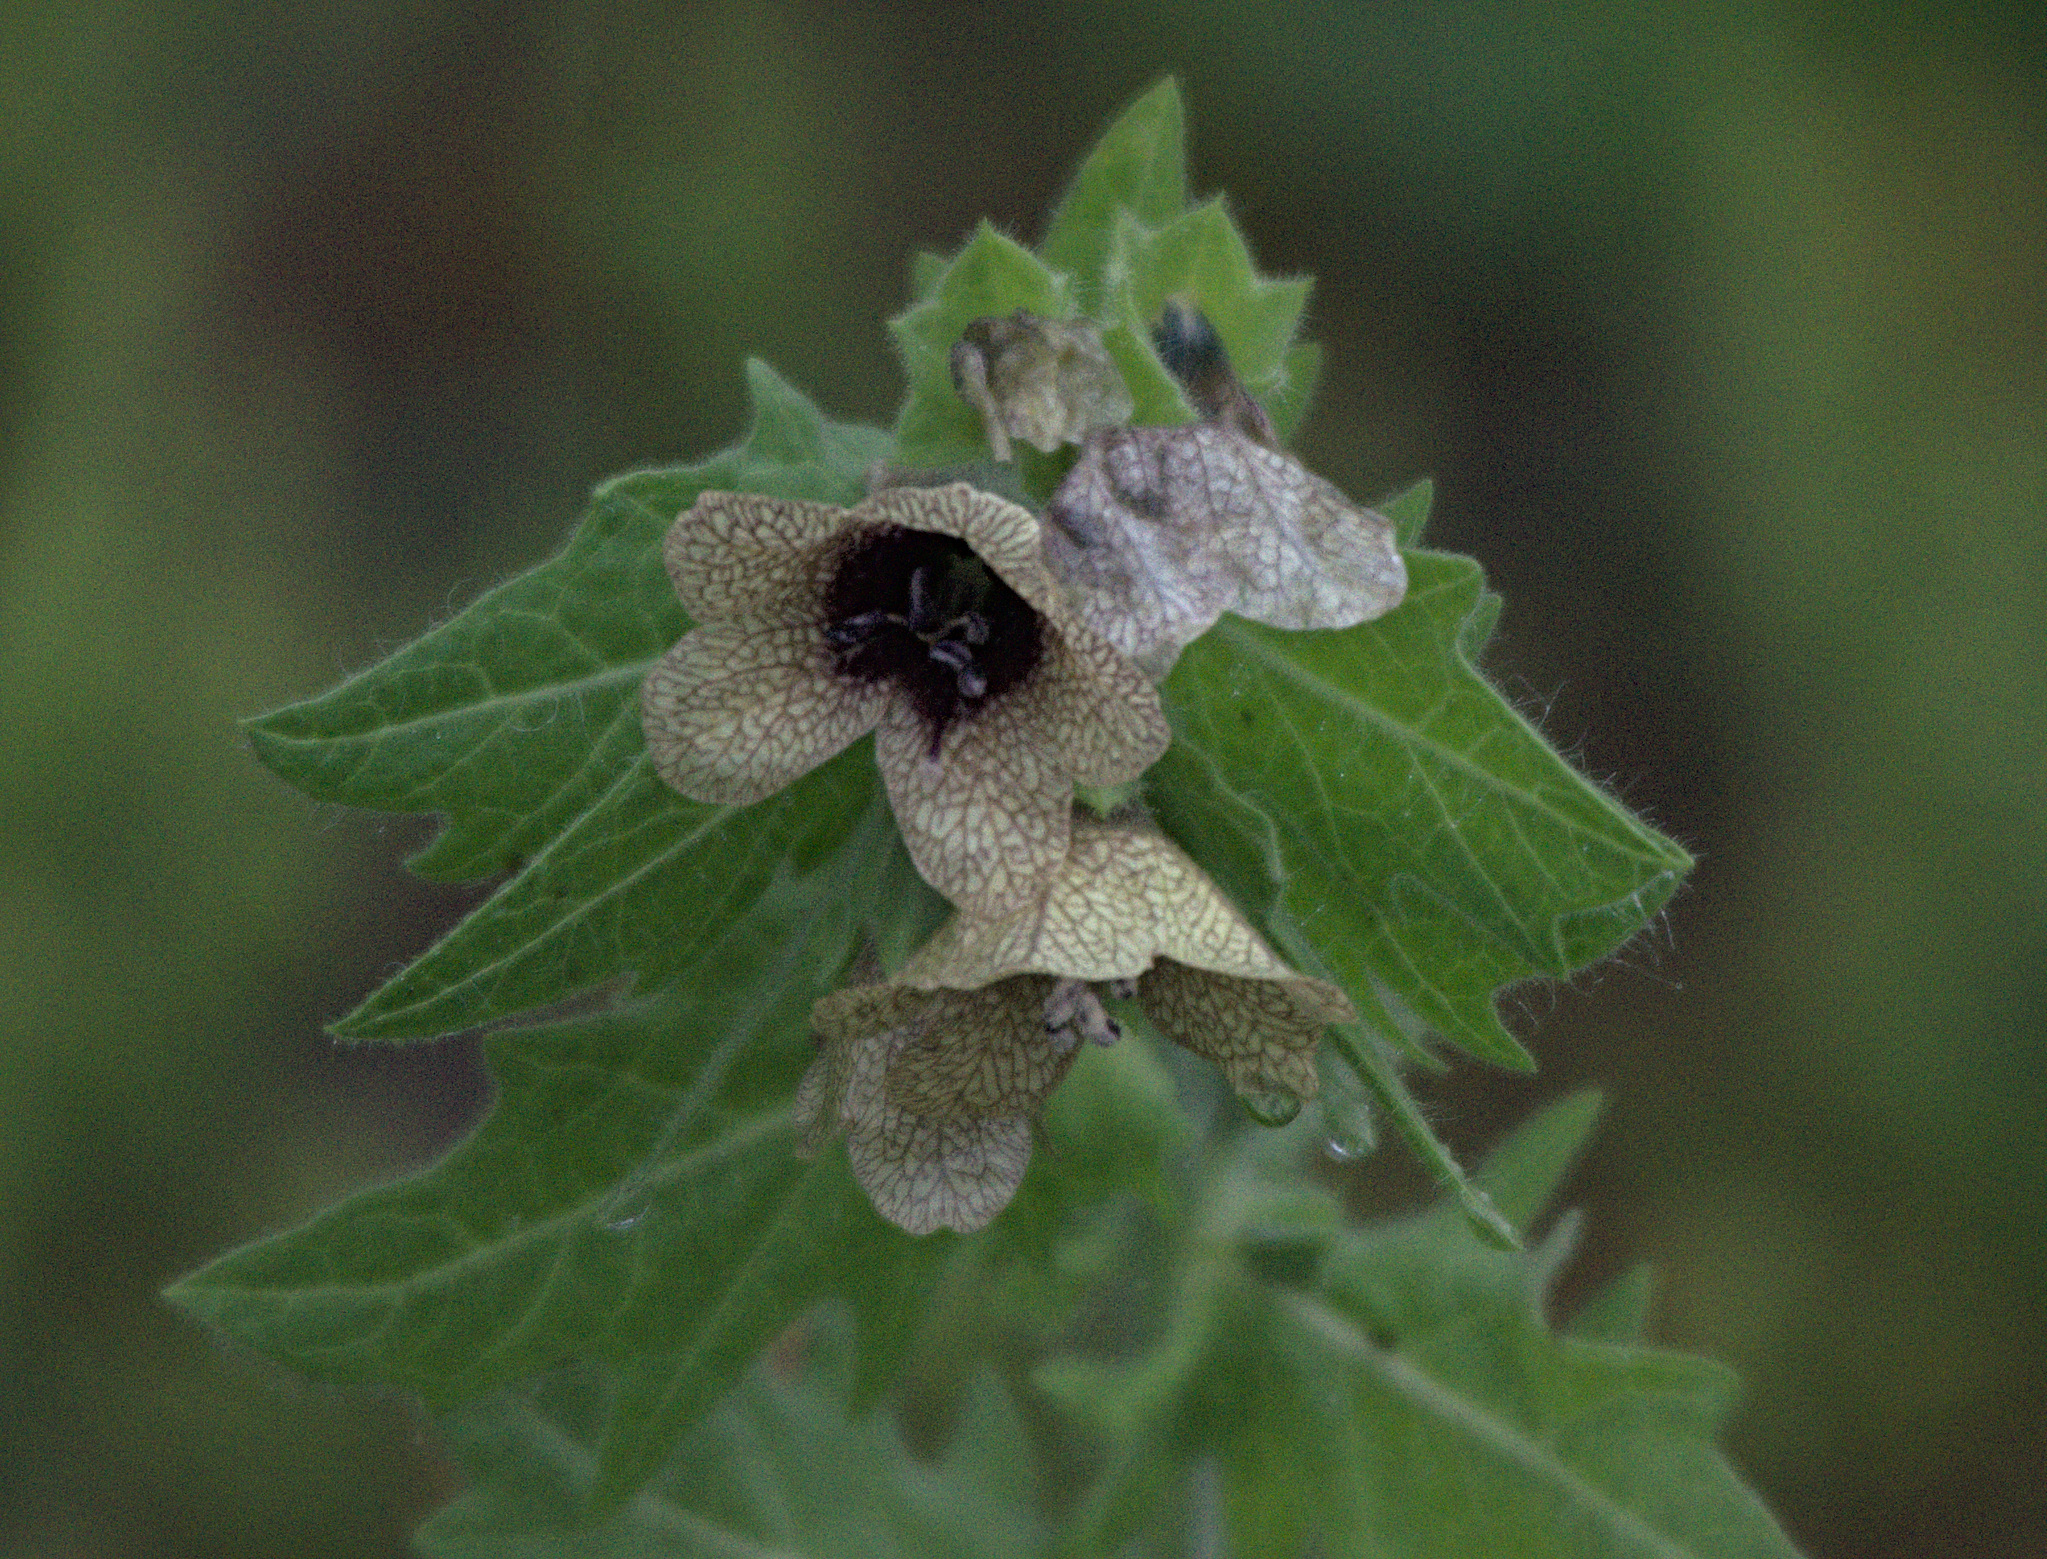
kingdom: Plantae
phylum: Tracheophyta
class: Magnoliopsida
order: Solanales
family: Solanaceae
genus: Hyoscyamus
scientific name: Hyoscyamus niger
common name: Henbane
